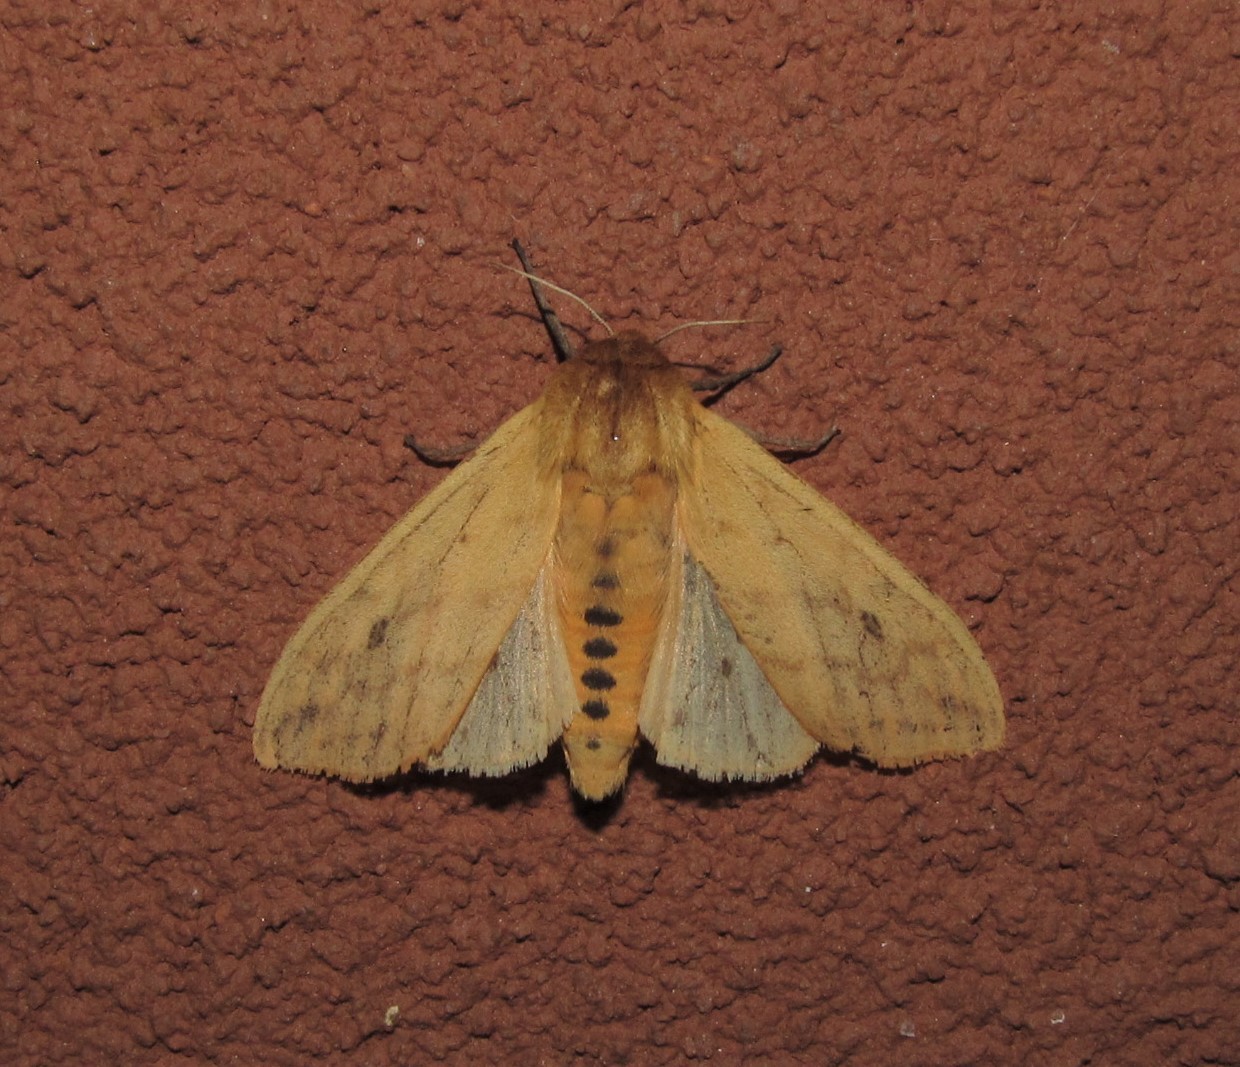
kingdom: Animalia
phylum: Arthropoda
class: Insecta
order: Lepidoptera
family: Erebidae
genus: Pyrrharctia
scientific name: Pyrrharctia isabella
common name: Isabella tiger moth
